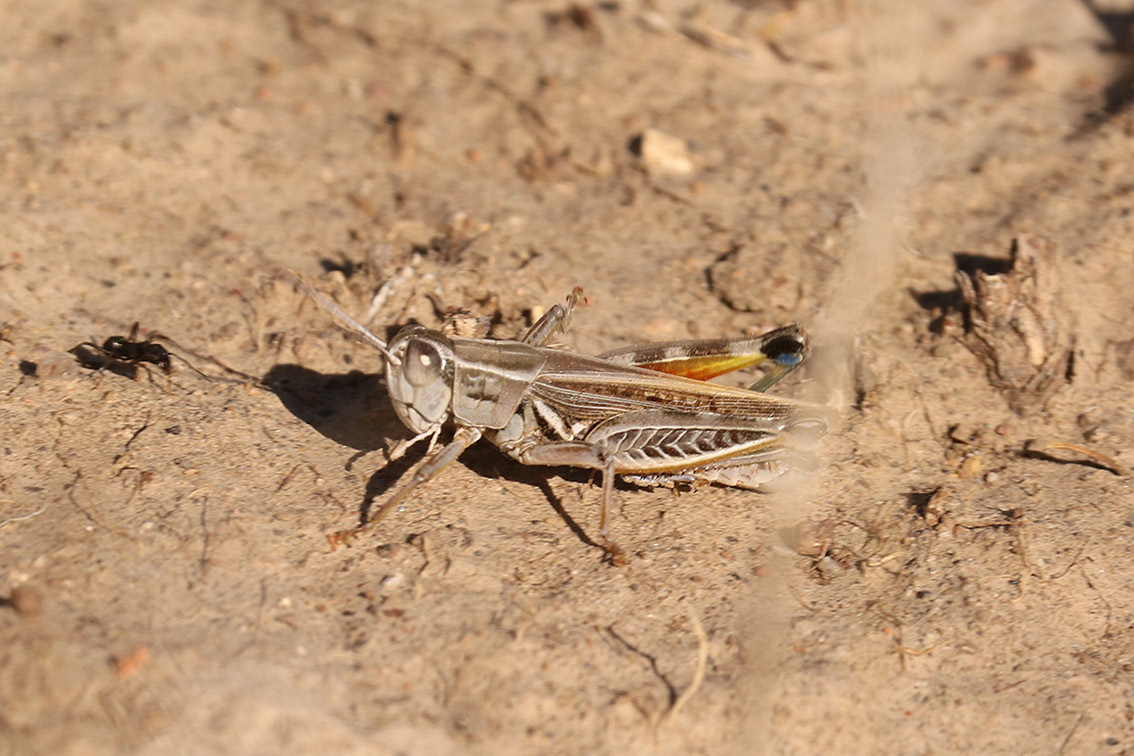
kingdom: Animalia
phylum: Arthropoda
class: Insecta
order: Orthoptera
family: Acrididae
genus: Dichroplus
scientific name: Dichroplus pratensis
